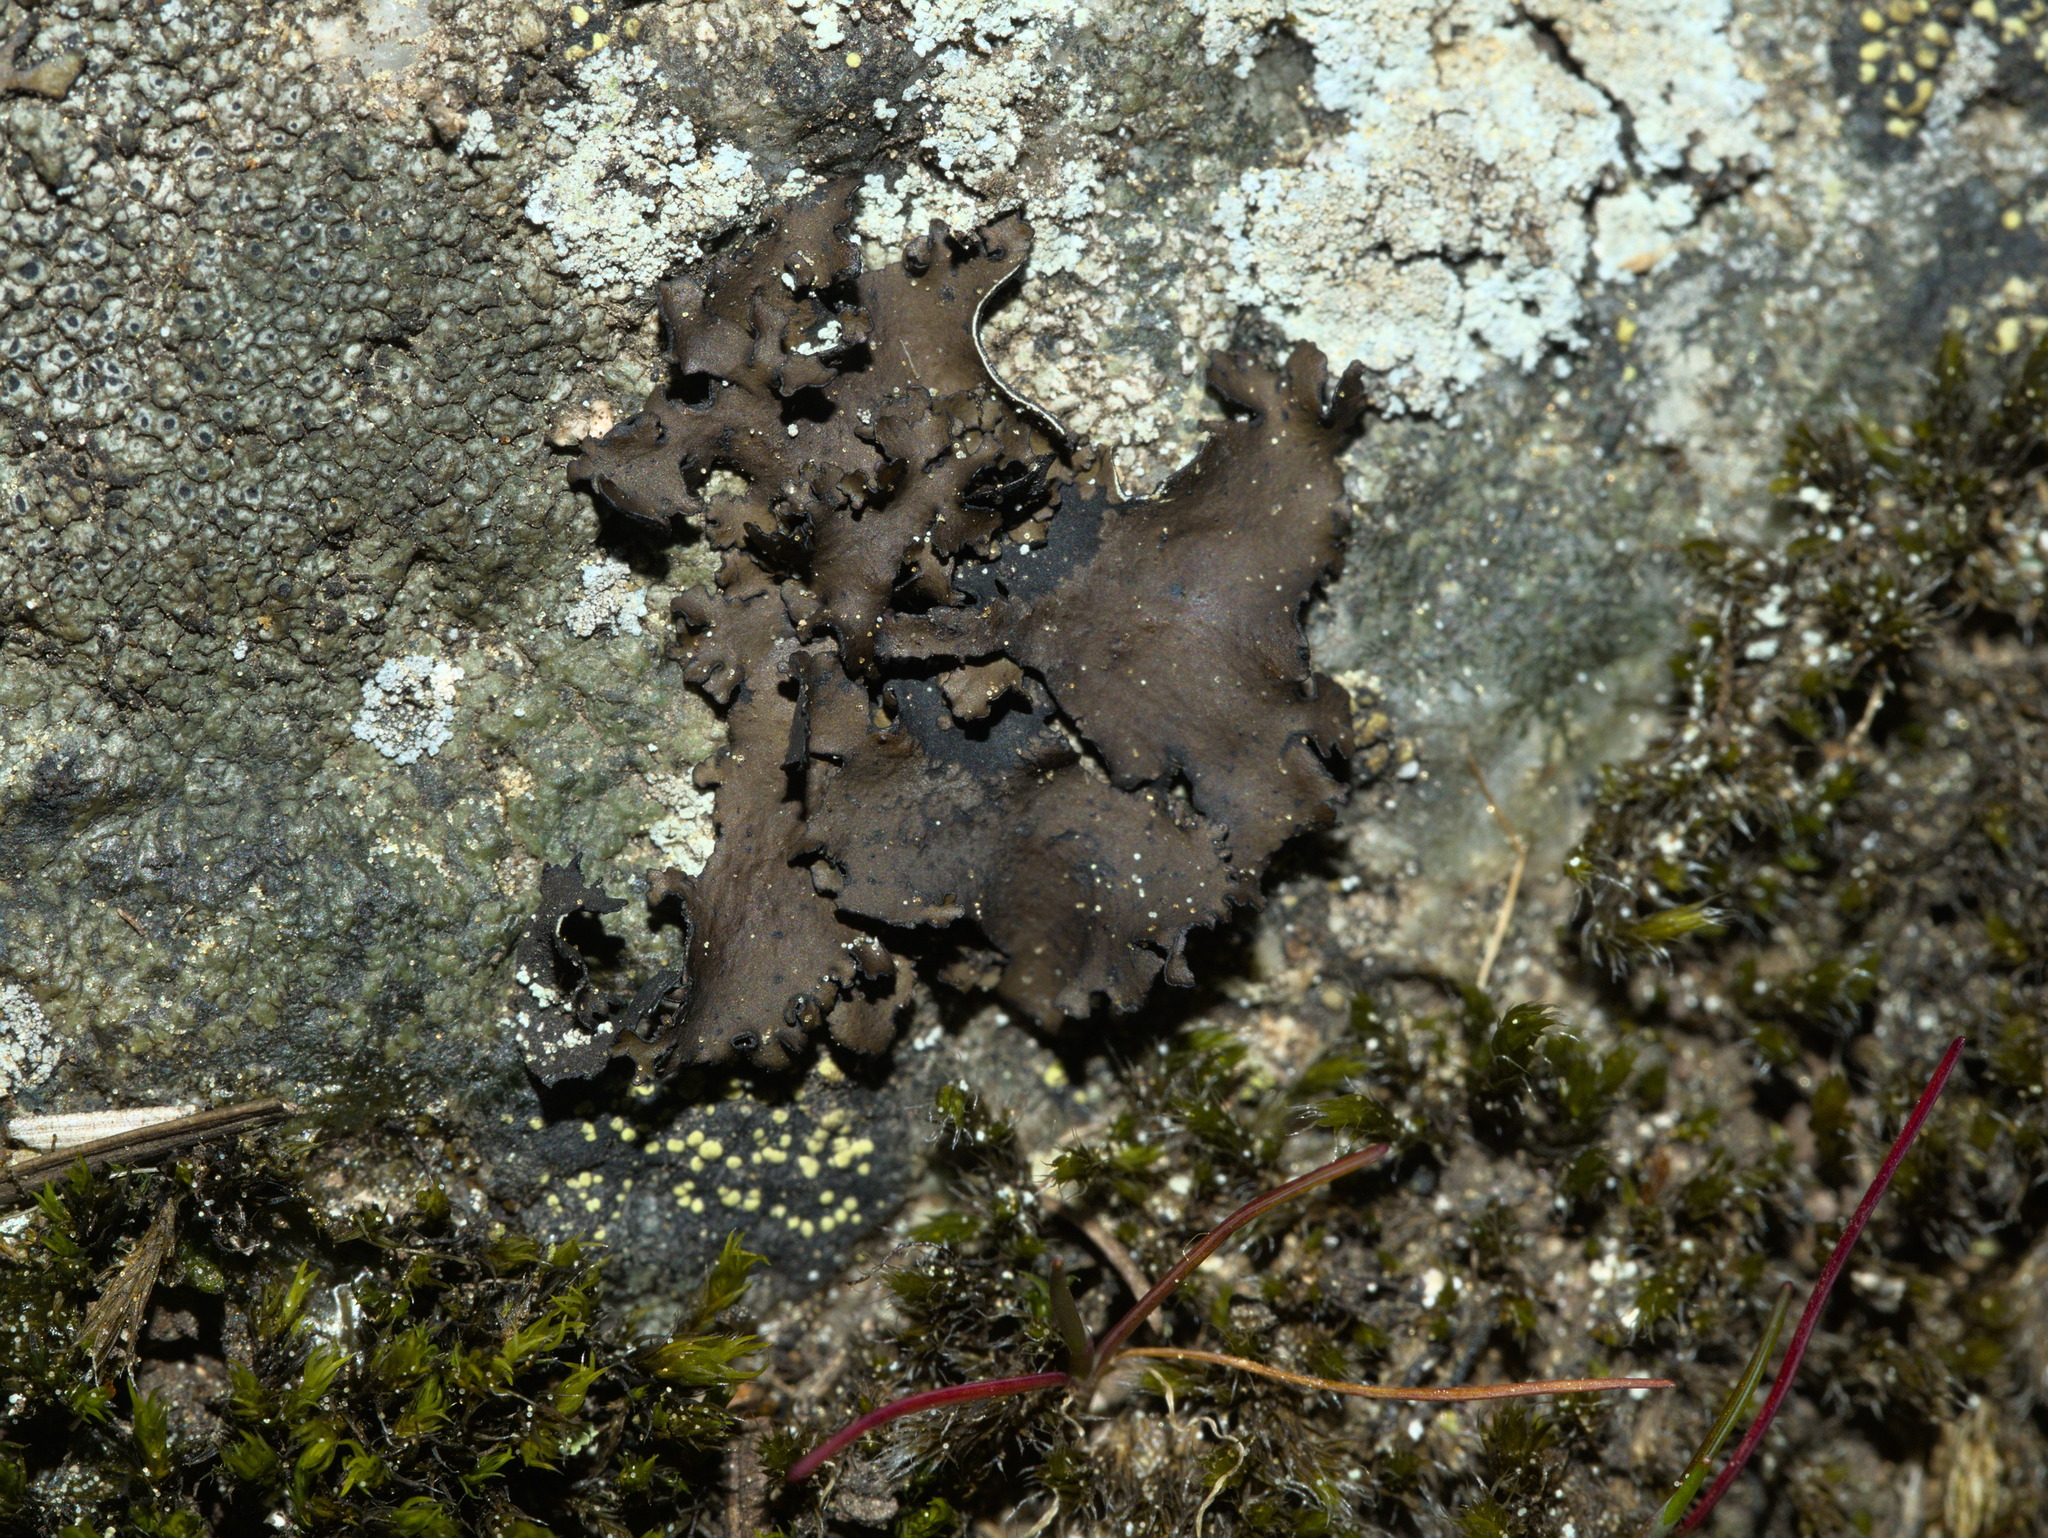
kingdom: Fungi
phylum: Ascomycota
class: Lecanoromycetes
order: Umbilicariales
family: Umbilicariaceae
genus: Umbilicaria
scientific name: Umbilicaria polyphylla
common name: Petalled rocktripe lichen
